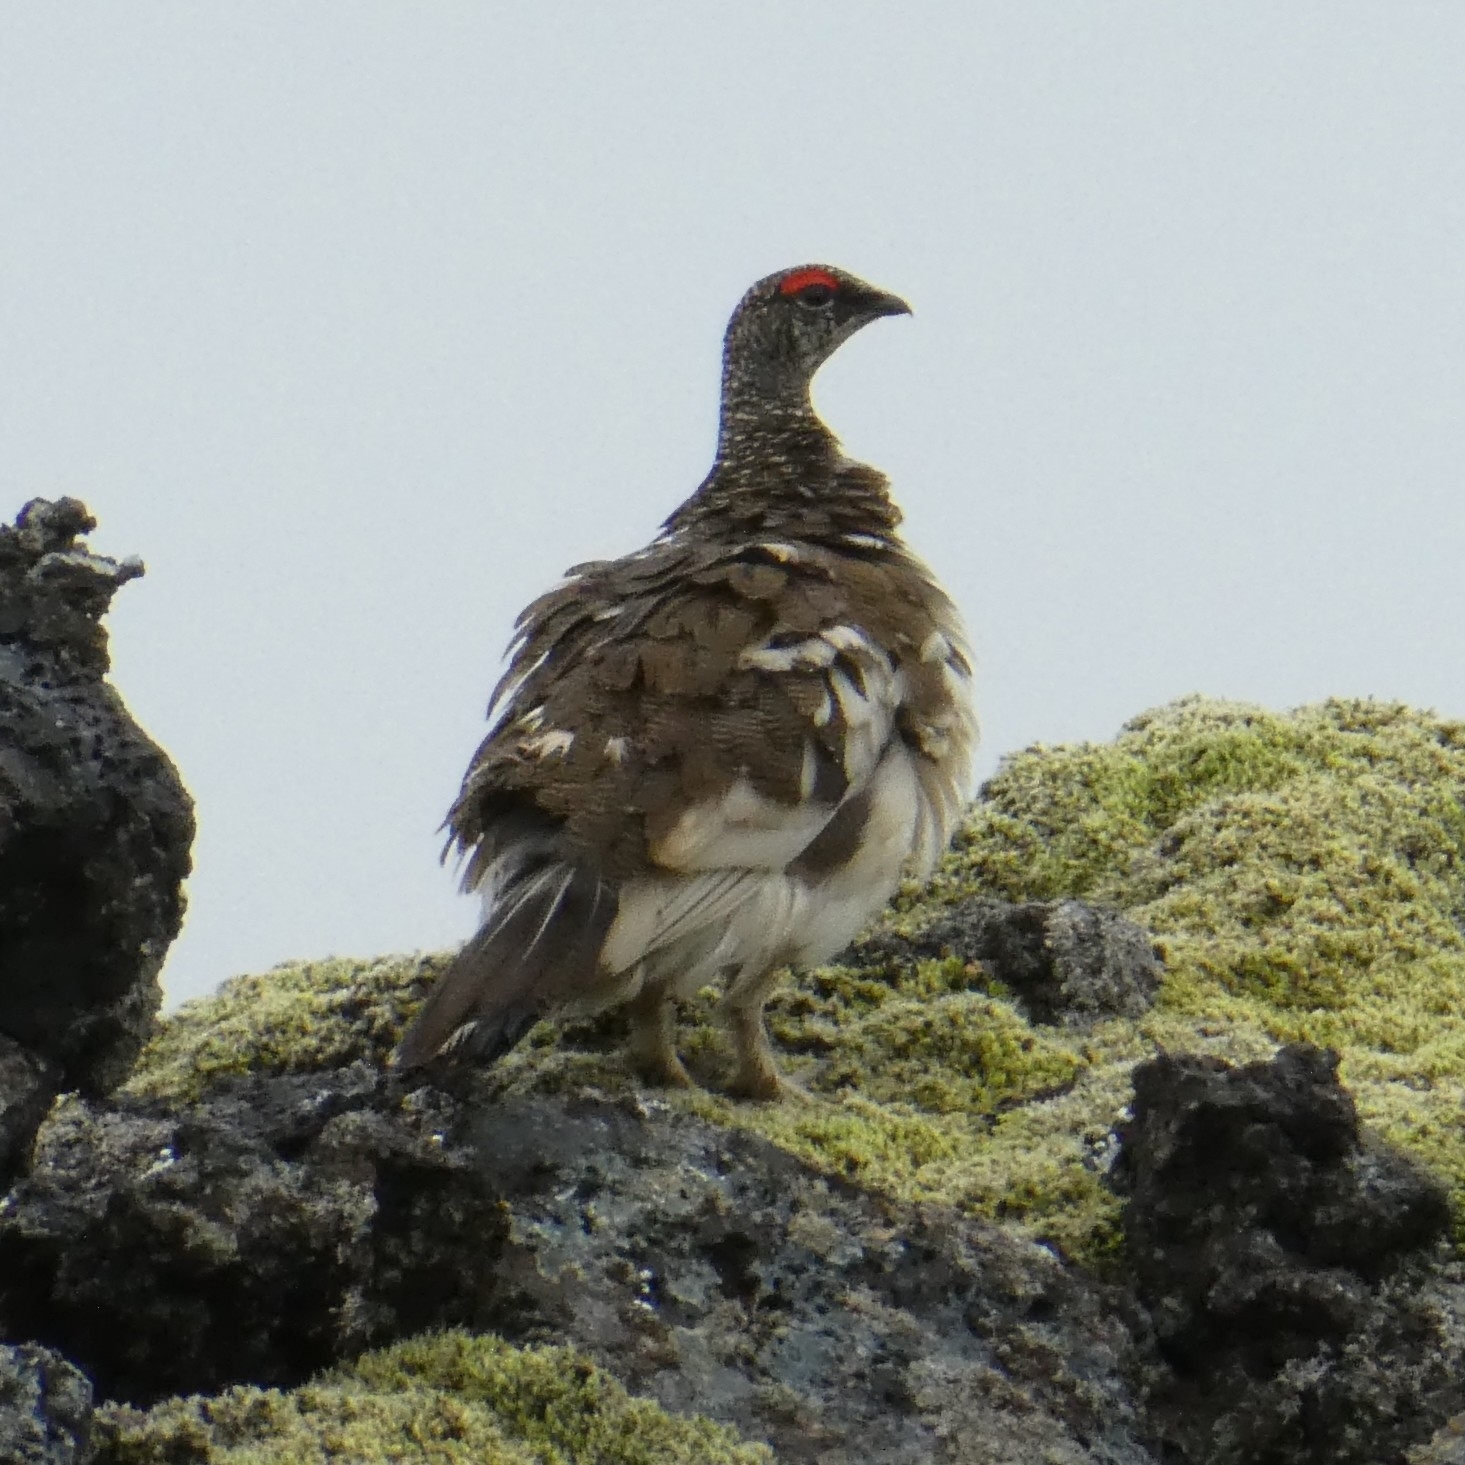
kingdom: Animalia
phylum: Chordata
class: Aves
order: Galliformes
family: Phasianidae
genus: Lagopus
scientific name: Lagopus muta
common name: Rock ptarmigan
